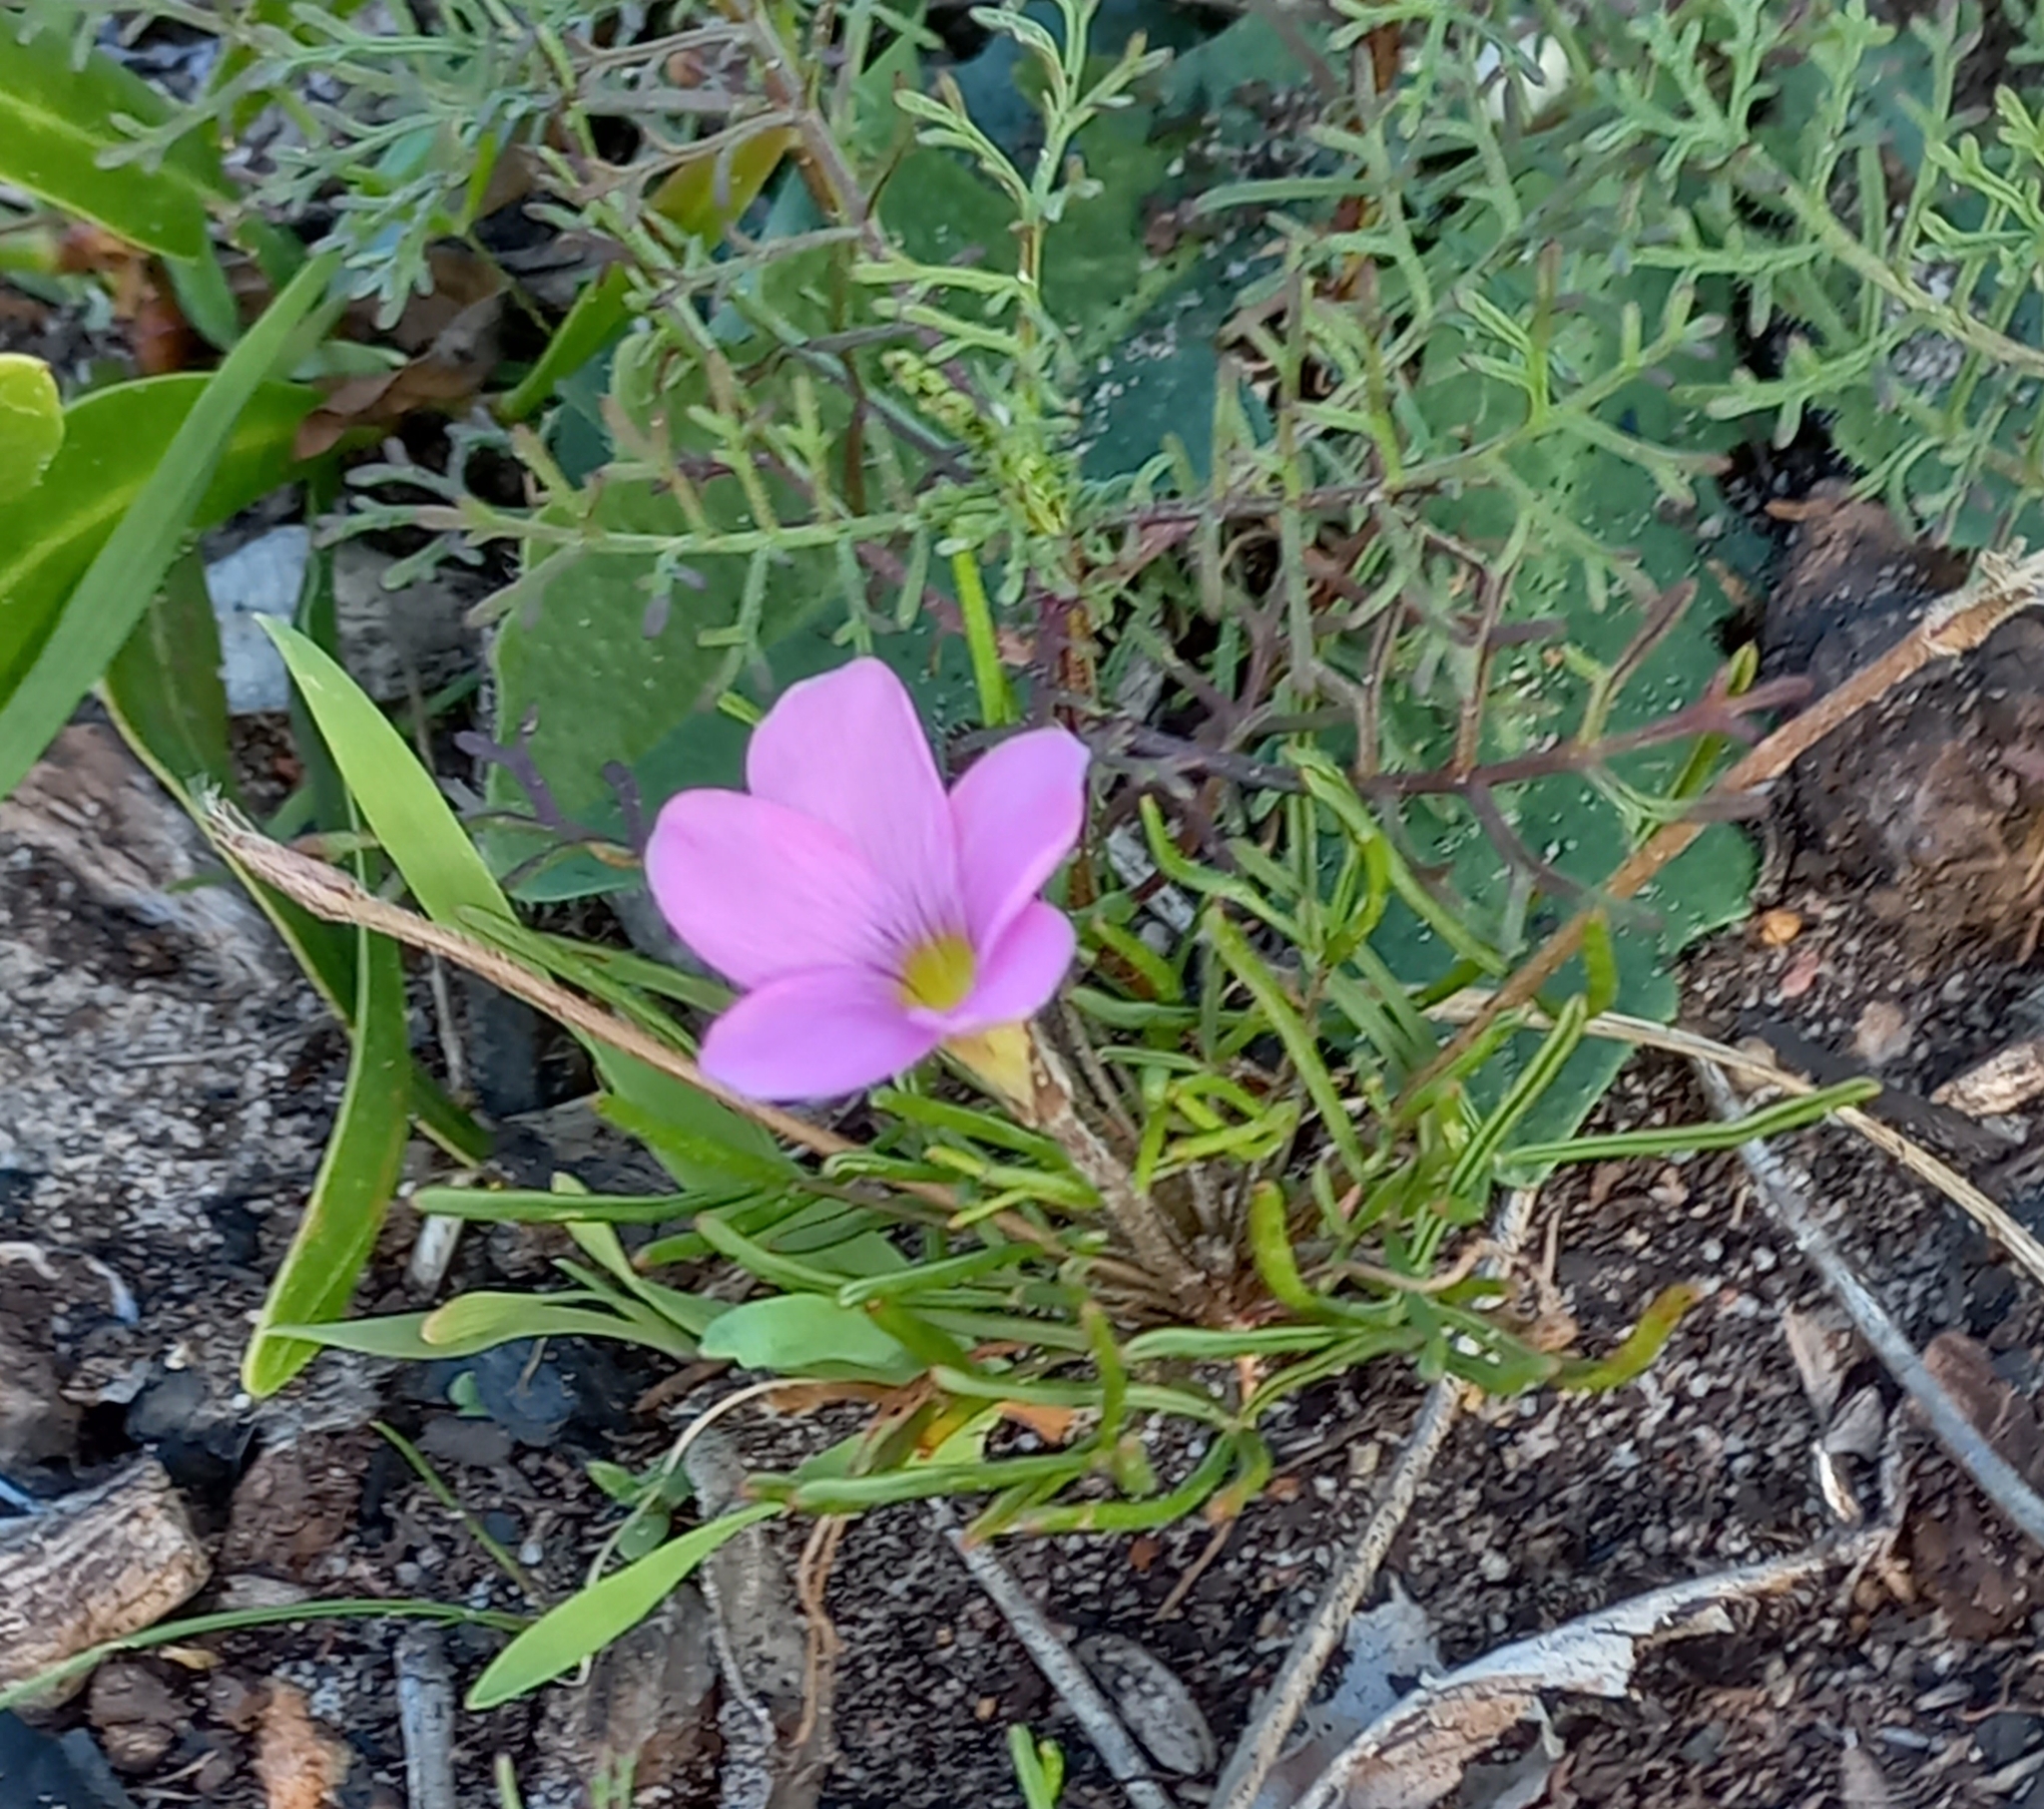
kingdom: Plantae
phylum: Tracheophyta
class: Magnoliopsida
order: Oxalidales
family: Oxalidaceae
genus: Oxalis
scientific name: Oxalis polyphylla
